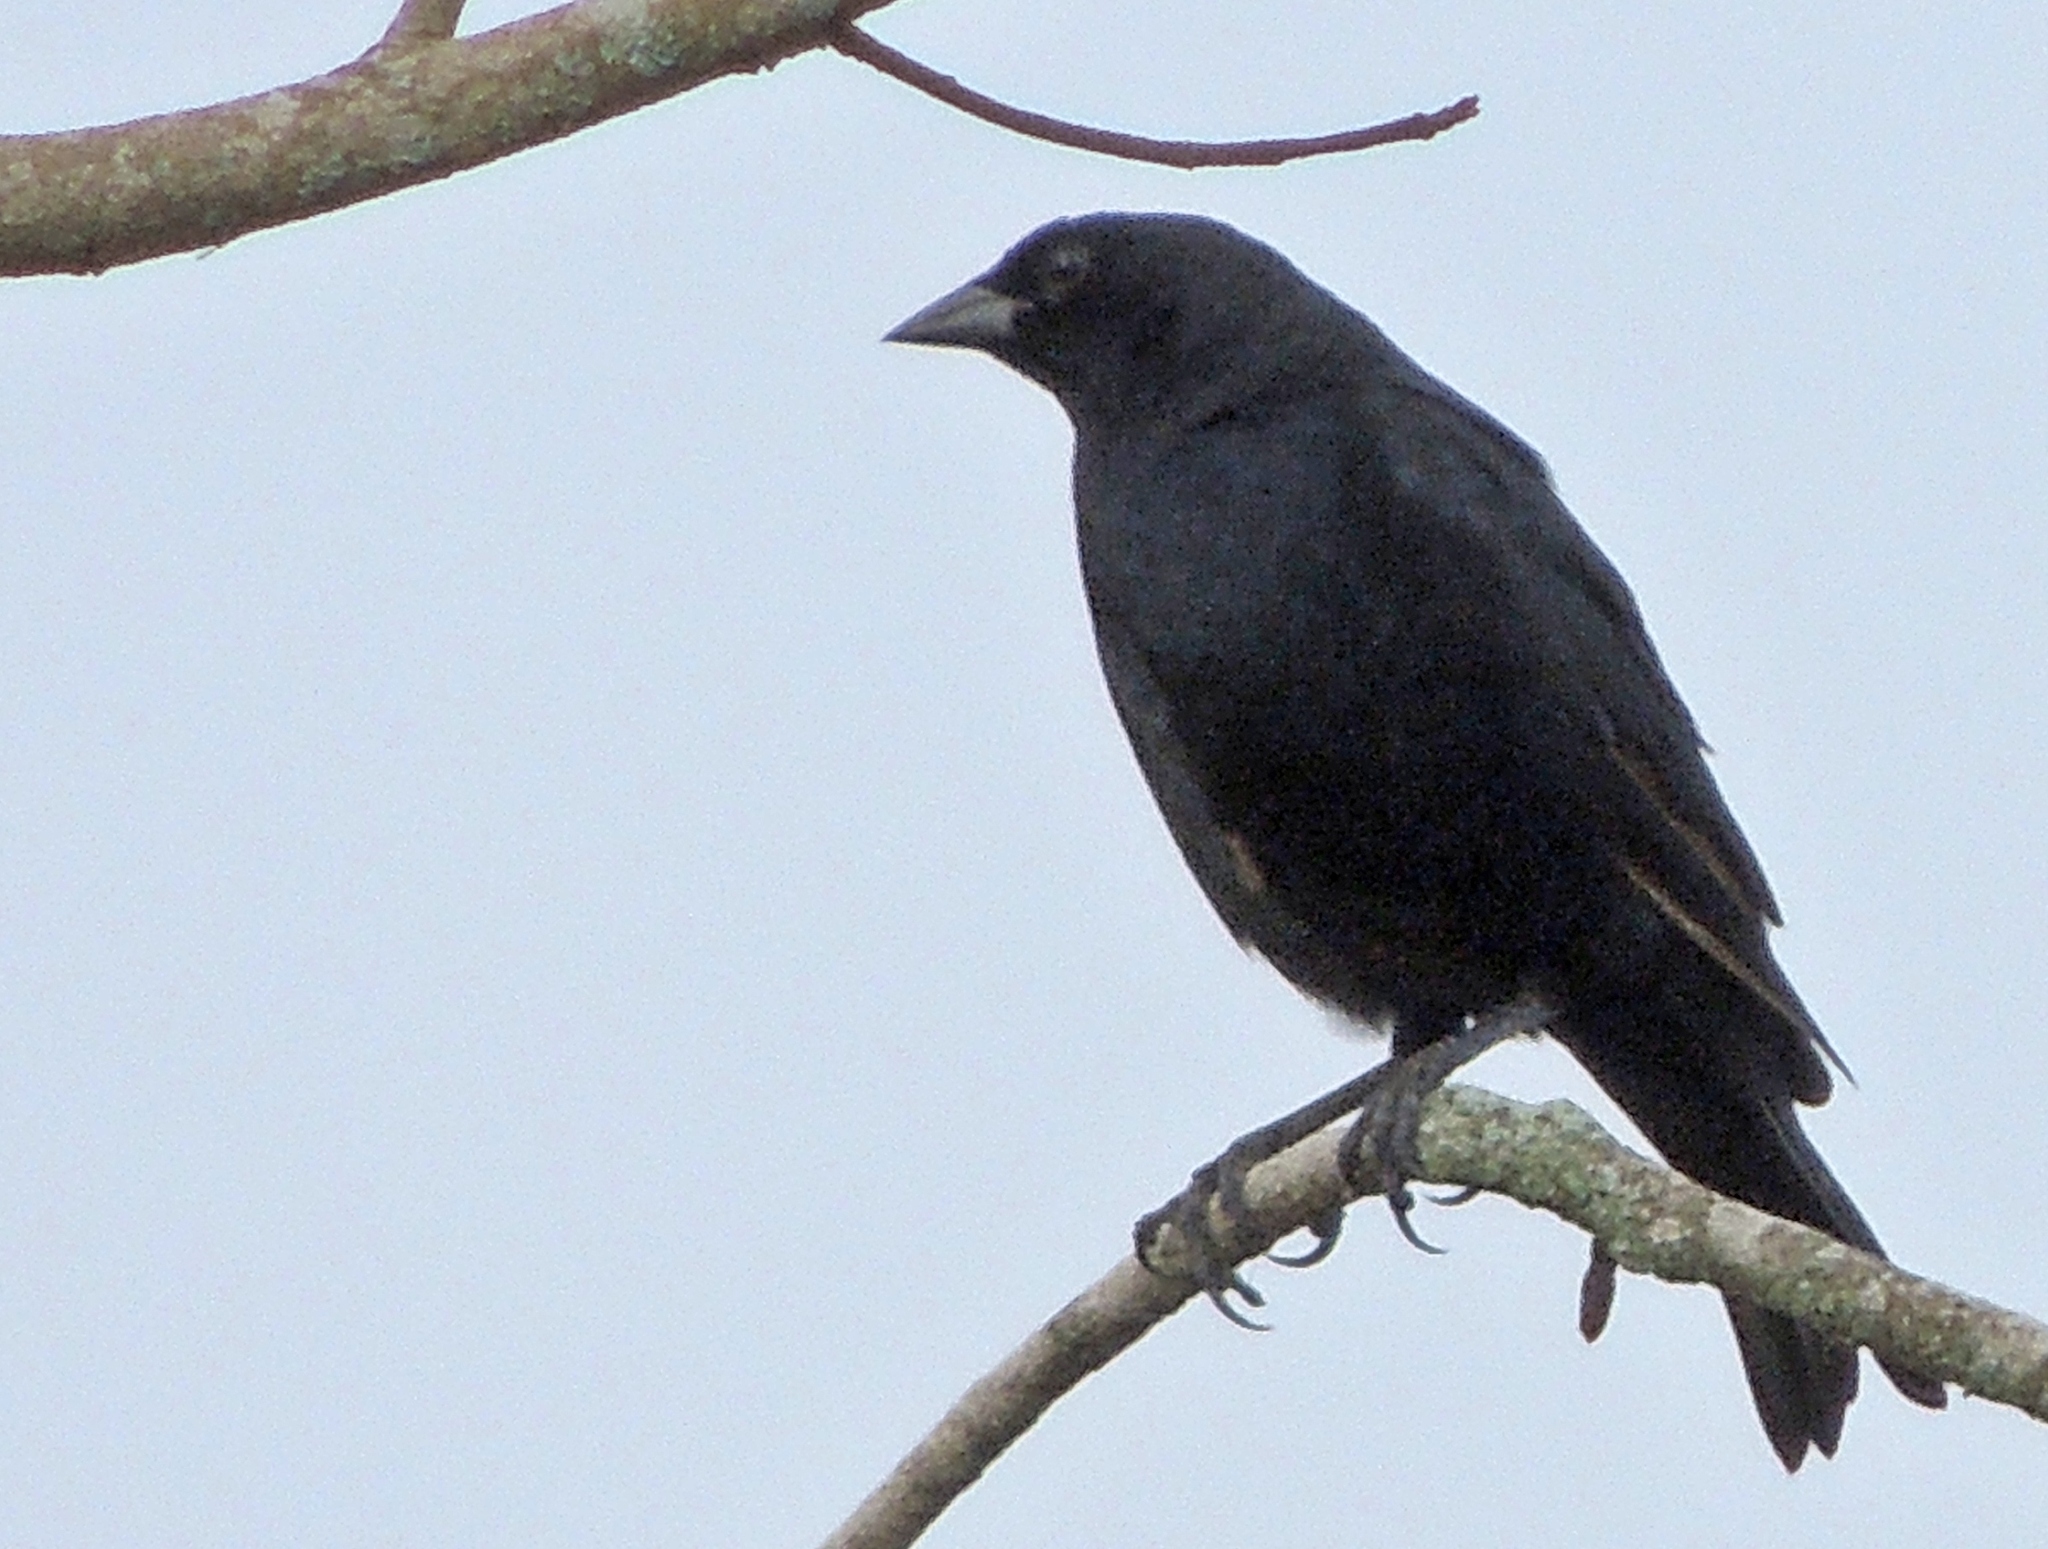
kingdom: Animalia
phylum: Chordata
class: Aves
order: Passeriformes
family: Icteridae
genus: Molothrus
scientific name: Molothrus bonariensis
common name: Shiny cowbird
